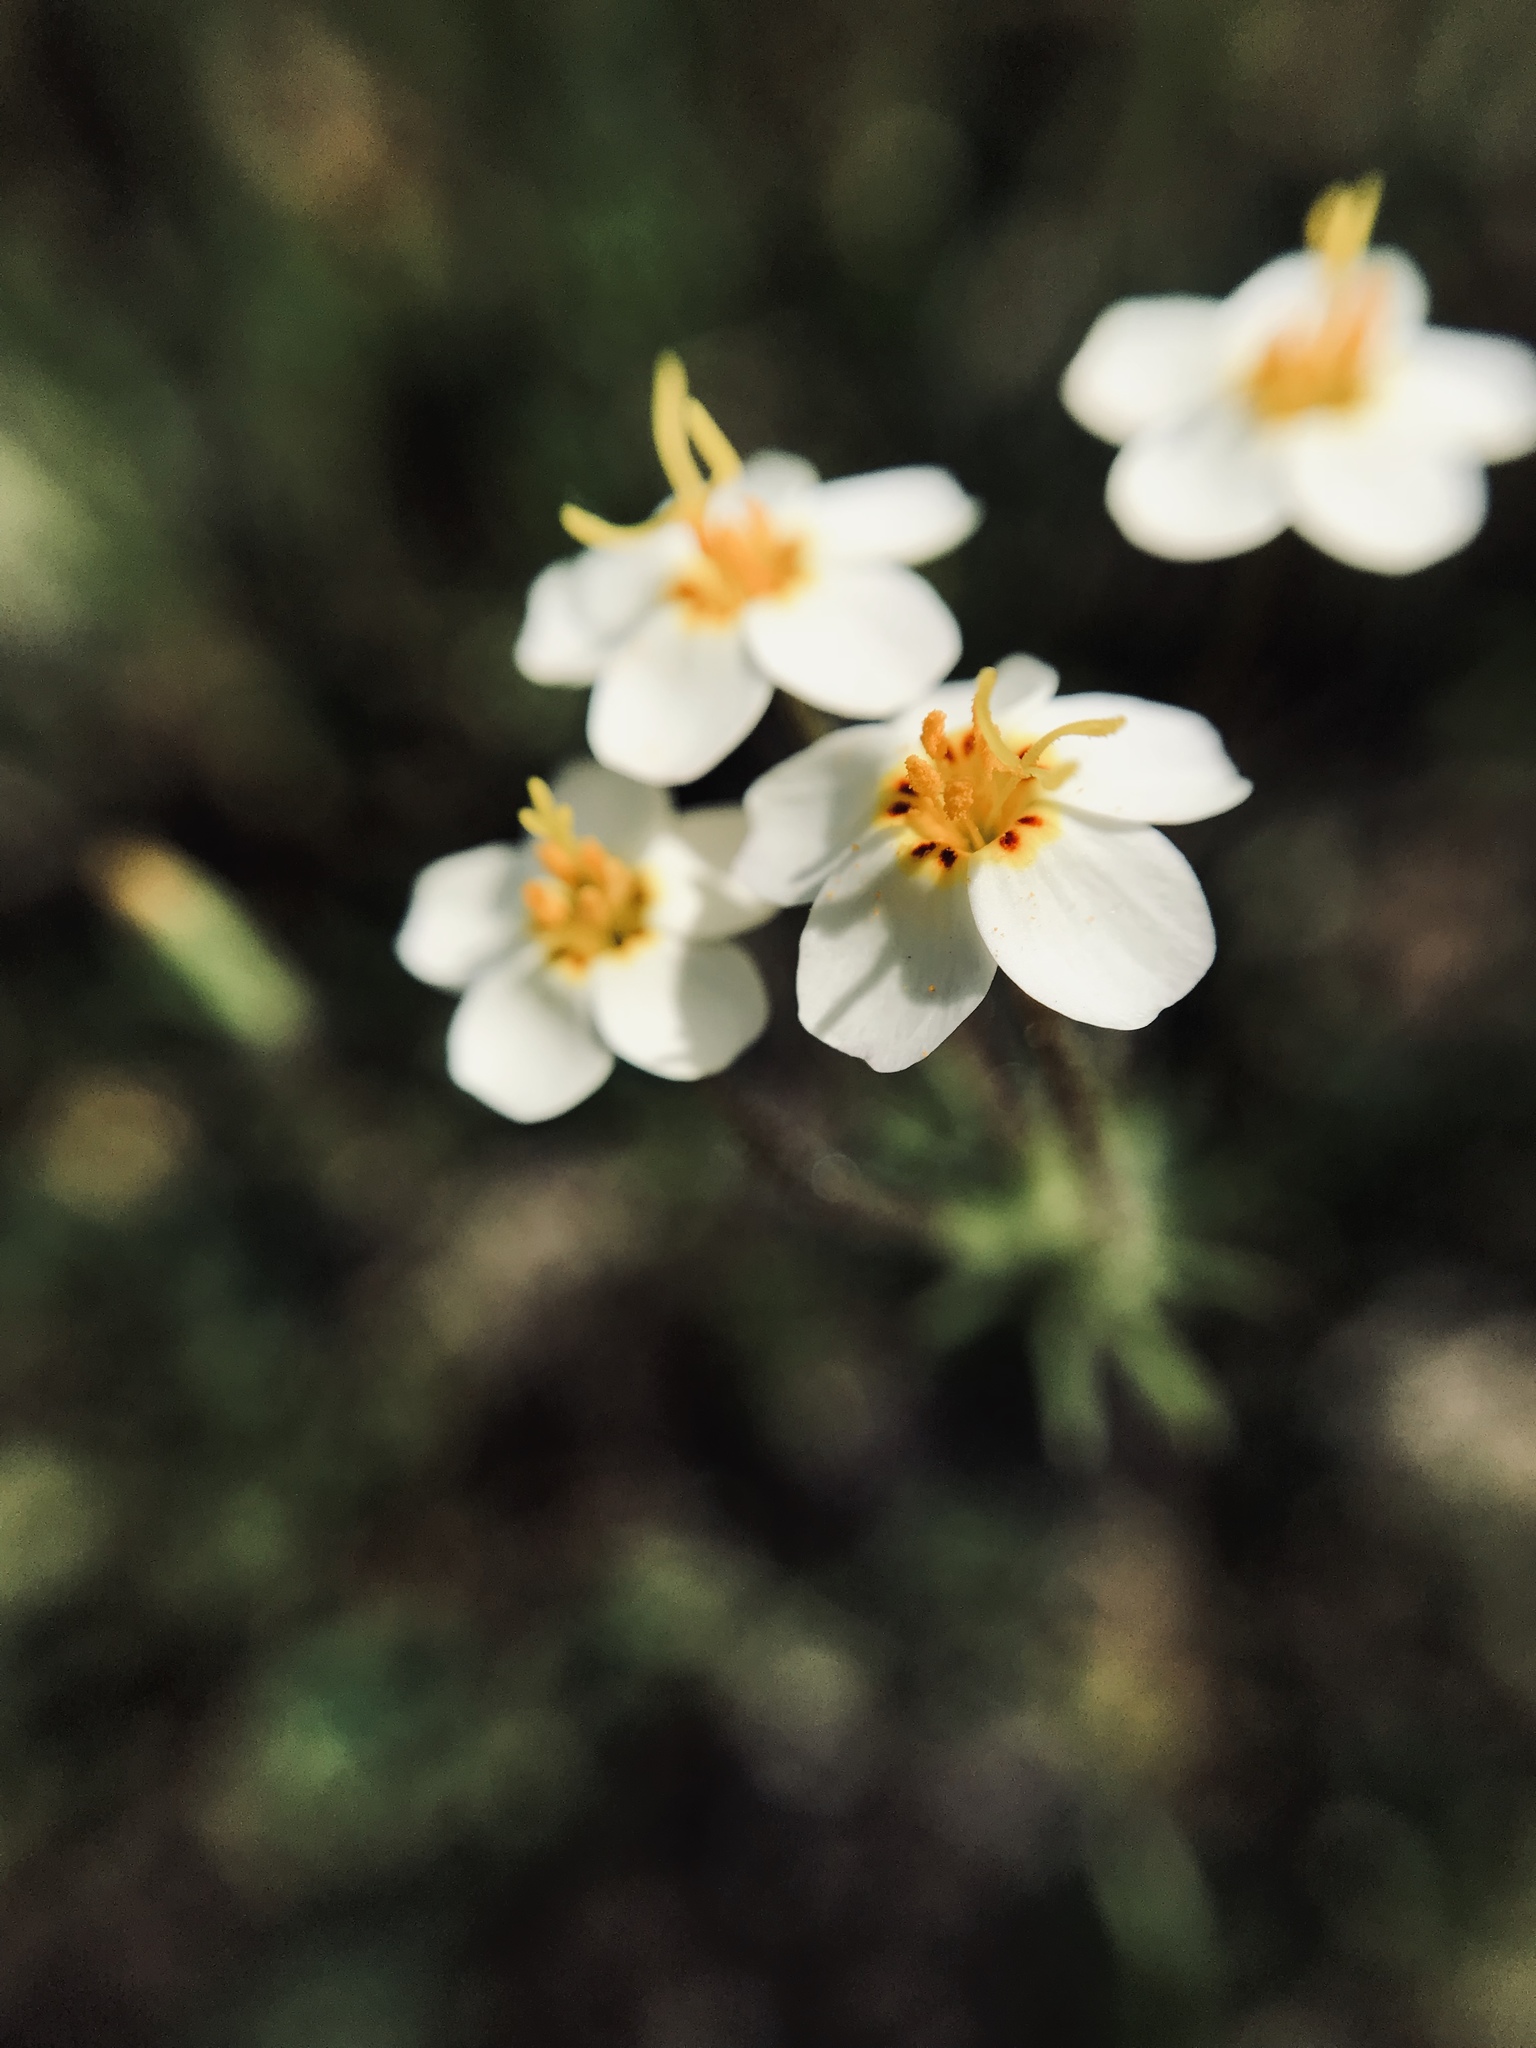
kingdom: Plantae
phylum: Tracheophyta
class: Magnoliopsida
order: Ericales
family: Polemoniaceae
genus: Leptosiphon
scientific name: Leptosiphon parviflorus
